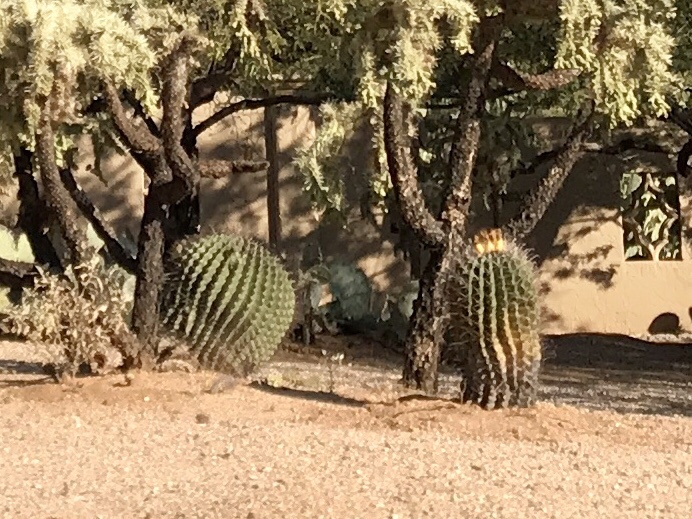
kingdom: Plantae
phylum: Tracheophyta
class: Magnoliopsida
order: Caryophyllales
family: Cactaceae
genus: Ferocactus
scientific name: Ferocactus wislizeni
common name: Candy barrel cactus
